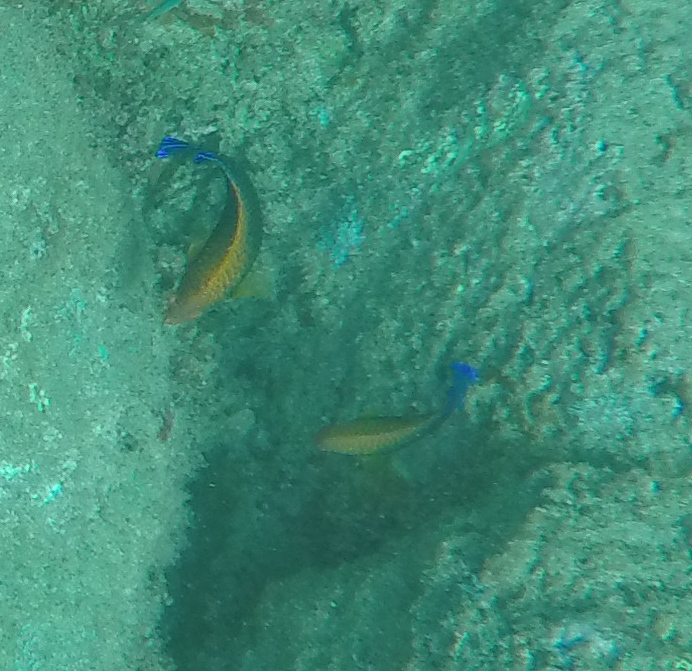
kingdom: Animalia
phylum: Chordata
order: Perciformes
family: Pomacanthidae
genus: Centropyge
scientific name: Centropyge potteri
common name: Potter's angelfish
